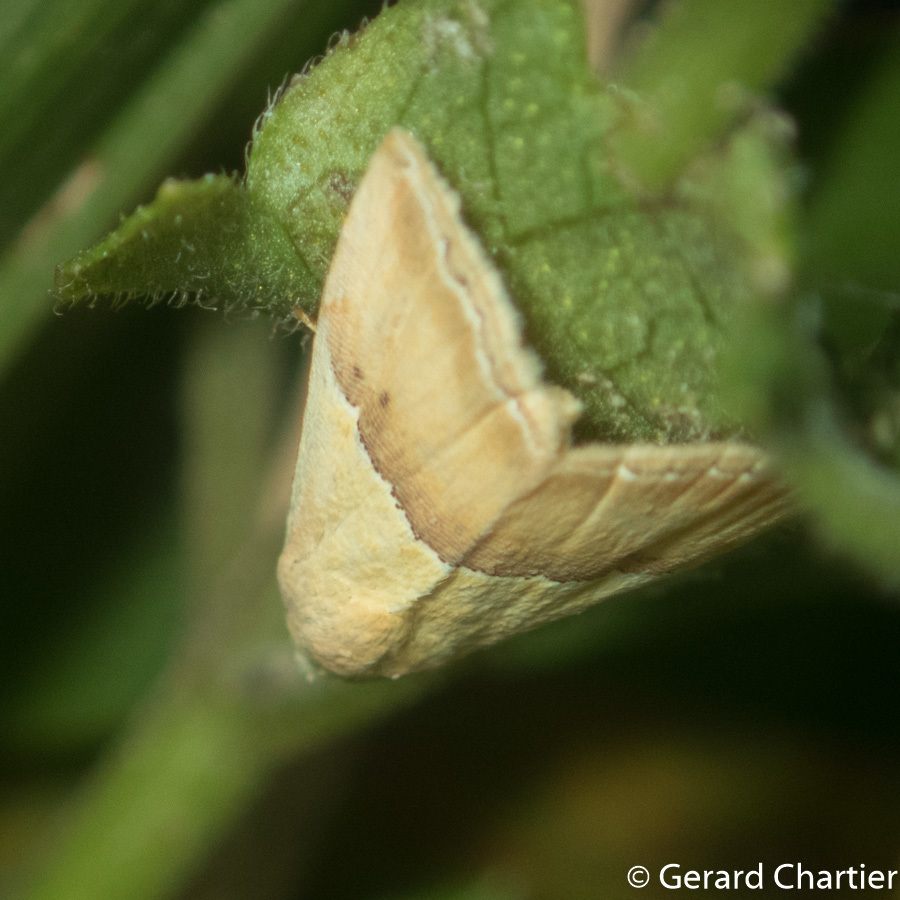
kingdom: Animalia
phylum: Arthropoda
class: Insecta
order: Lepidoptera
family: Noctuidae
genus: Eublemma
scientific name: Eublemma accedens
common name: Moth
